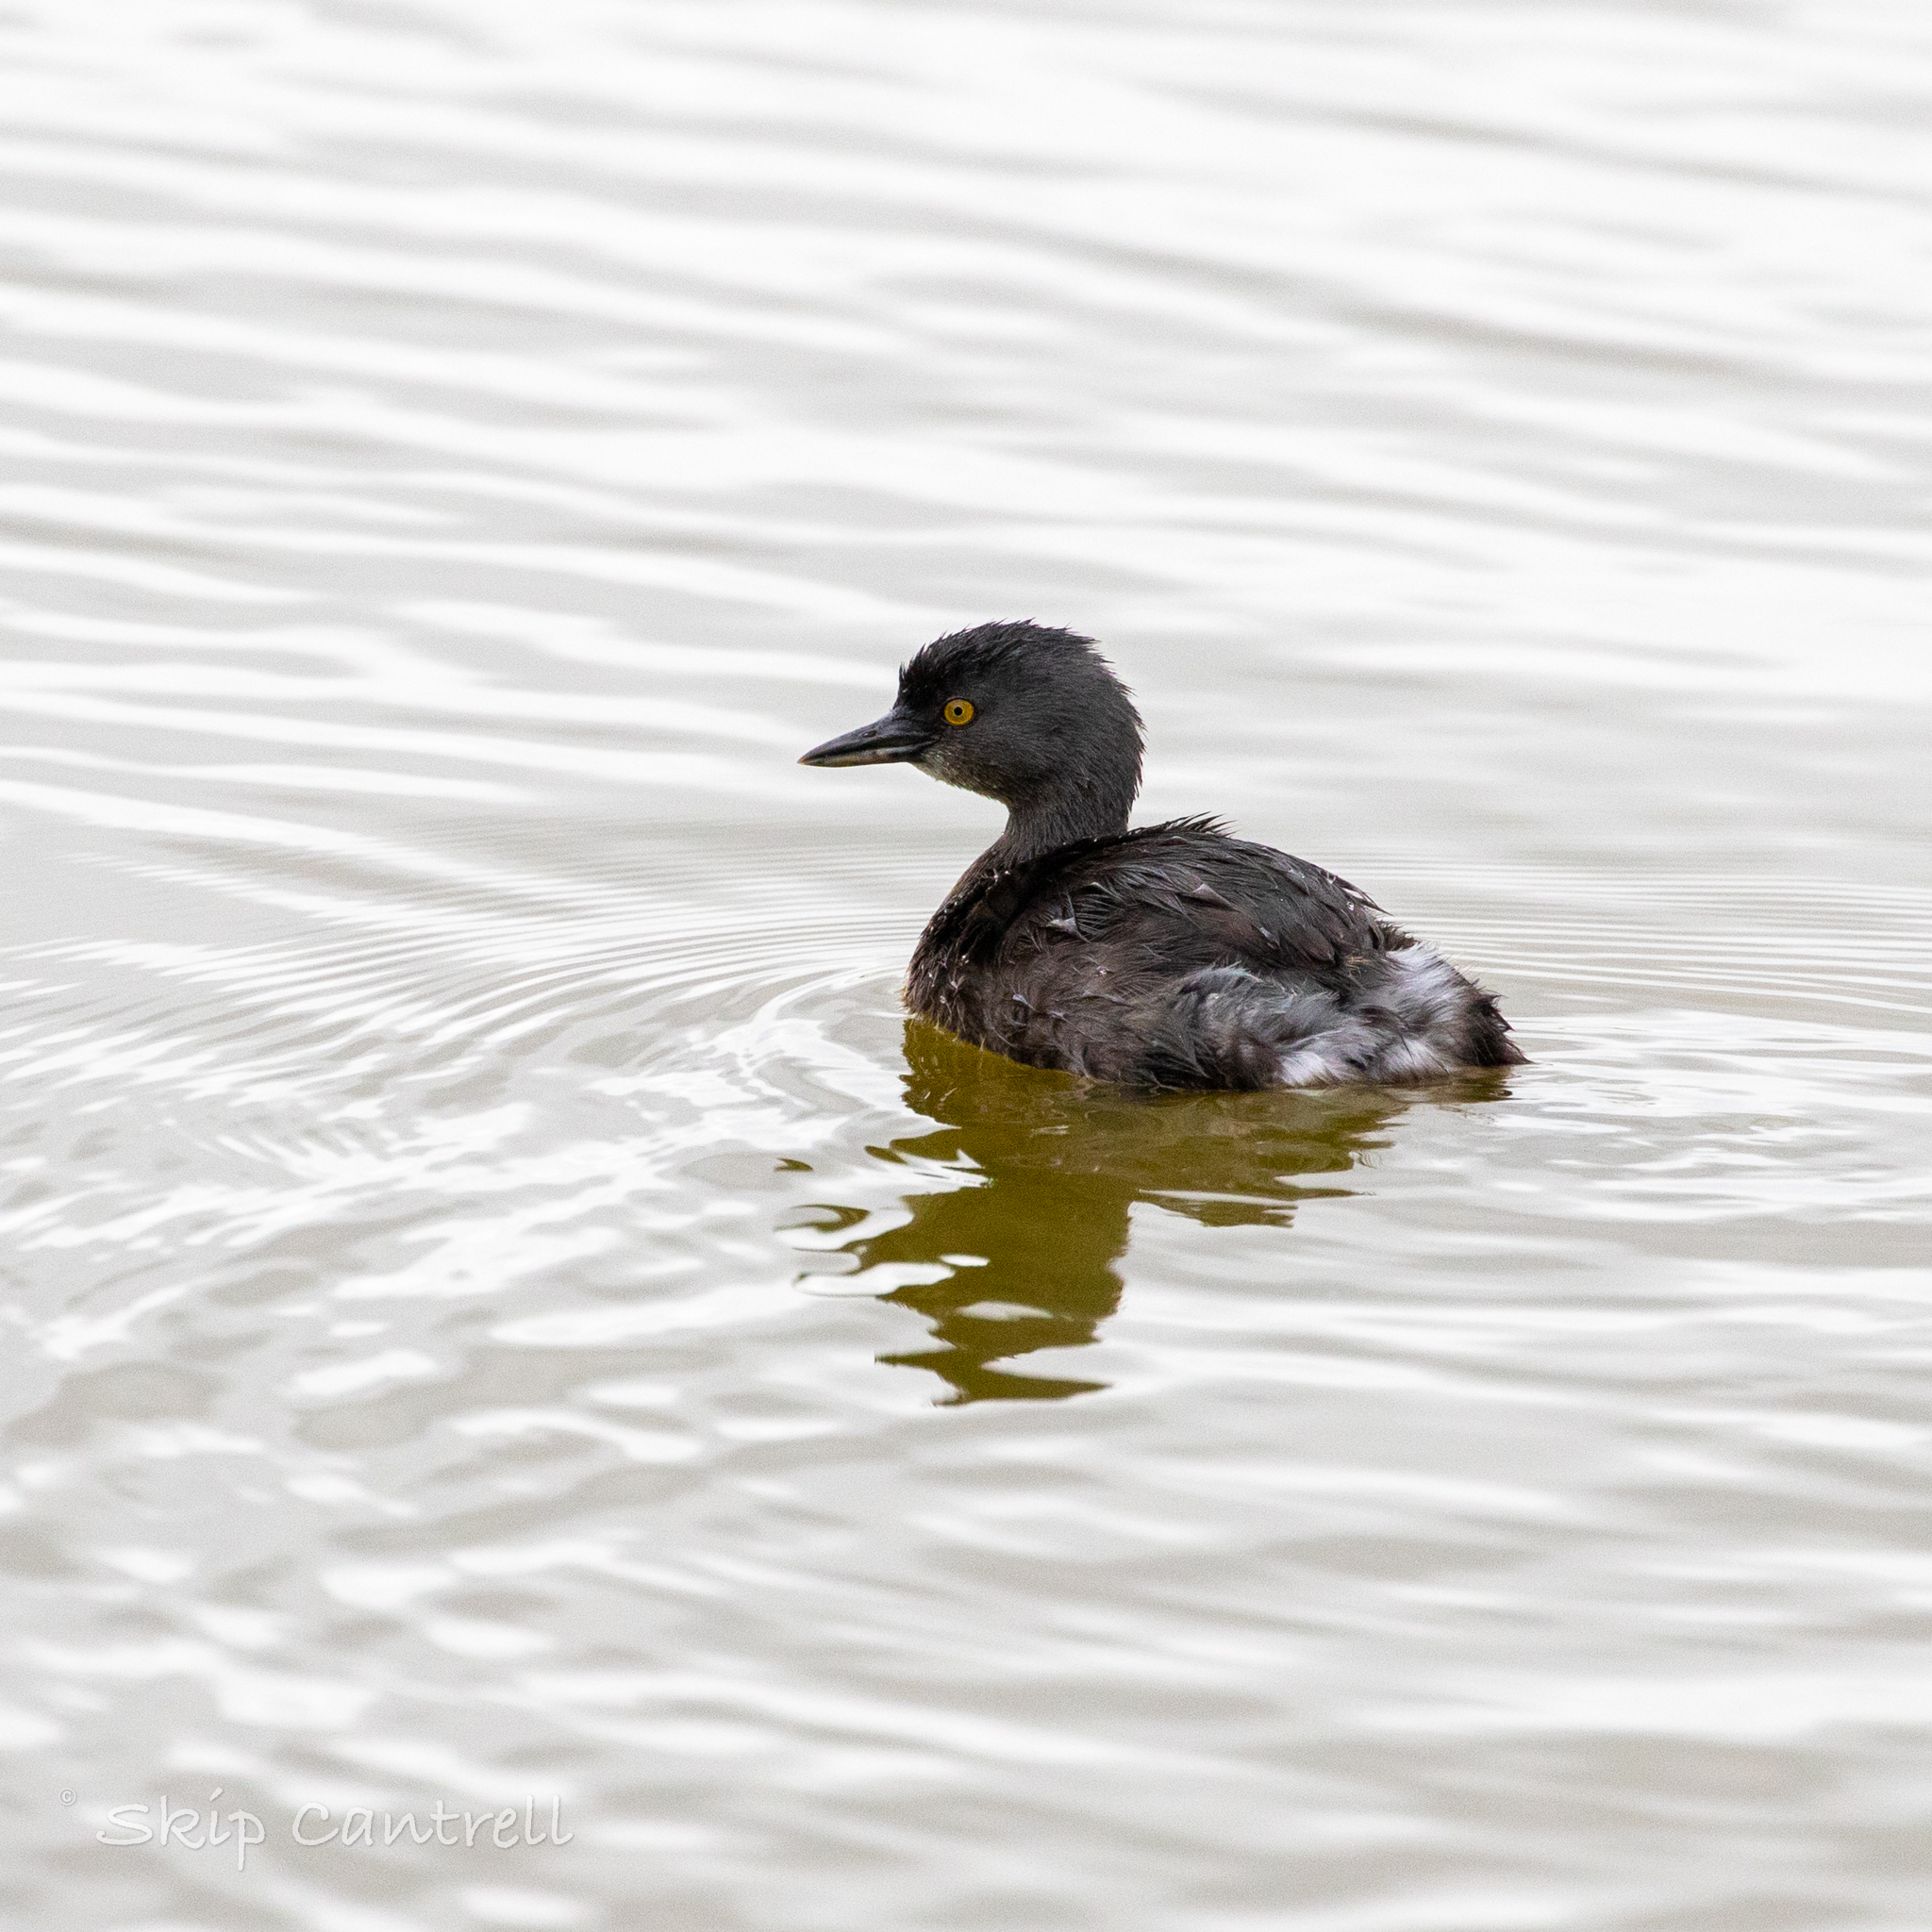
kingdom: Animalia
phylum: Chordata
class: Aves
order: Podicipediformes
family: Podicipedidae
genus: Tachybaptus
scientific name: Tachybaptus dominicus
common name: Least grebe
